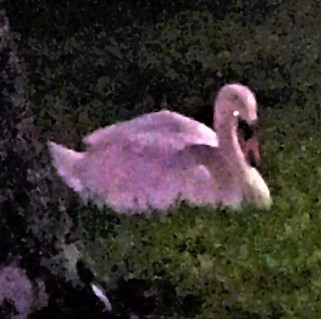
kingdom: Animalia
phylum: Chordata
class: Aves
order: Anseriformes
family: Anatidae
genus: Cygnus
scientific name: Cygnus olor
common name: Mute swan
